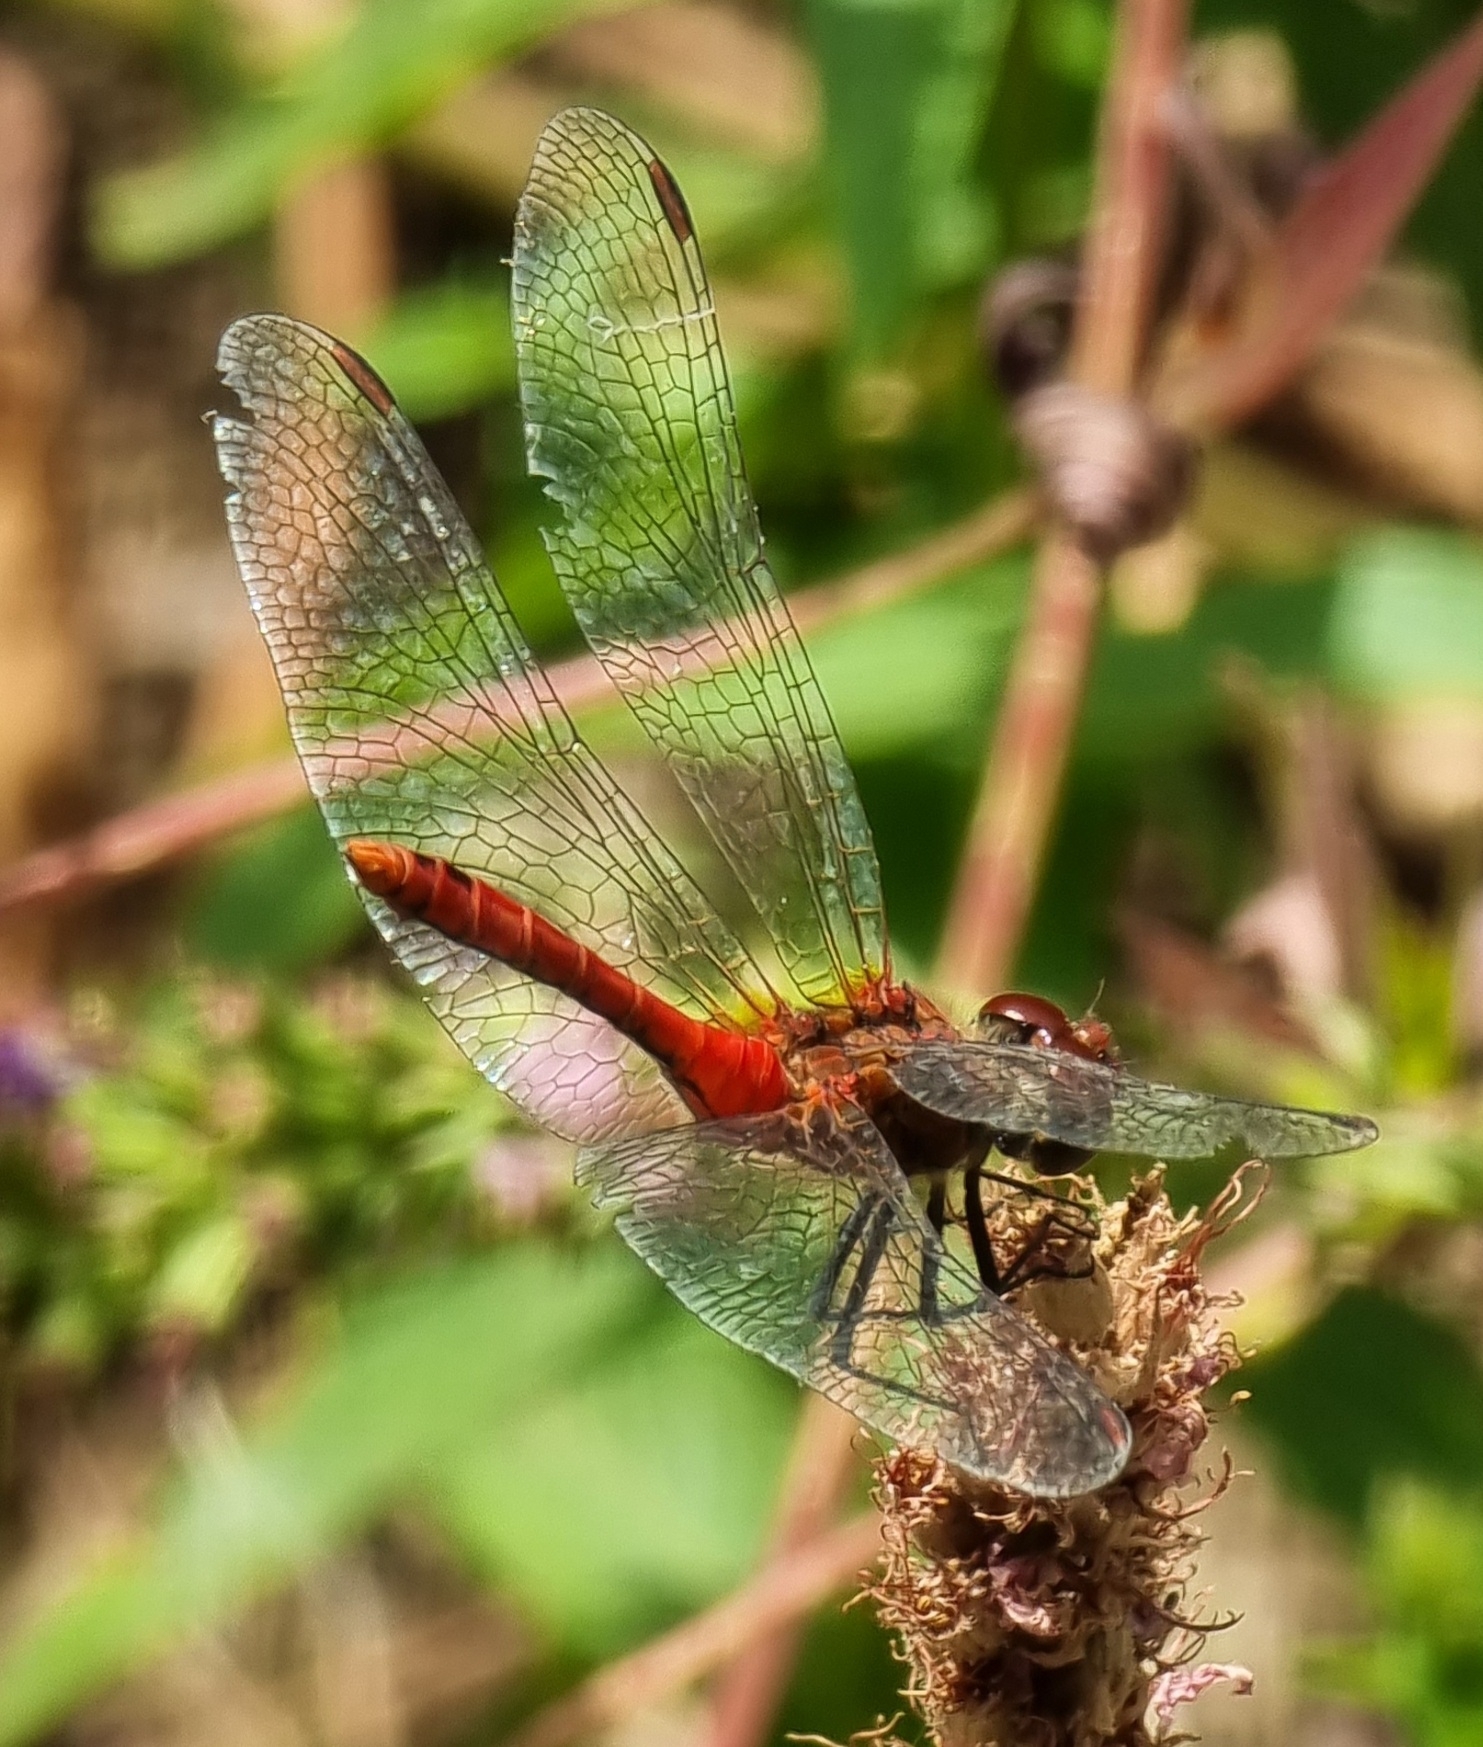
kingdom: Animalia
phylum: Arthropoda
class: Insecta
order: Odonata
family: Libellulidae
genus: Sympetrum
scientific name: Sympetrum sanguineum
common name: Ruddy darter
